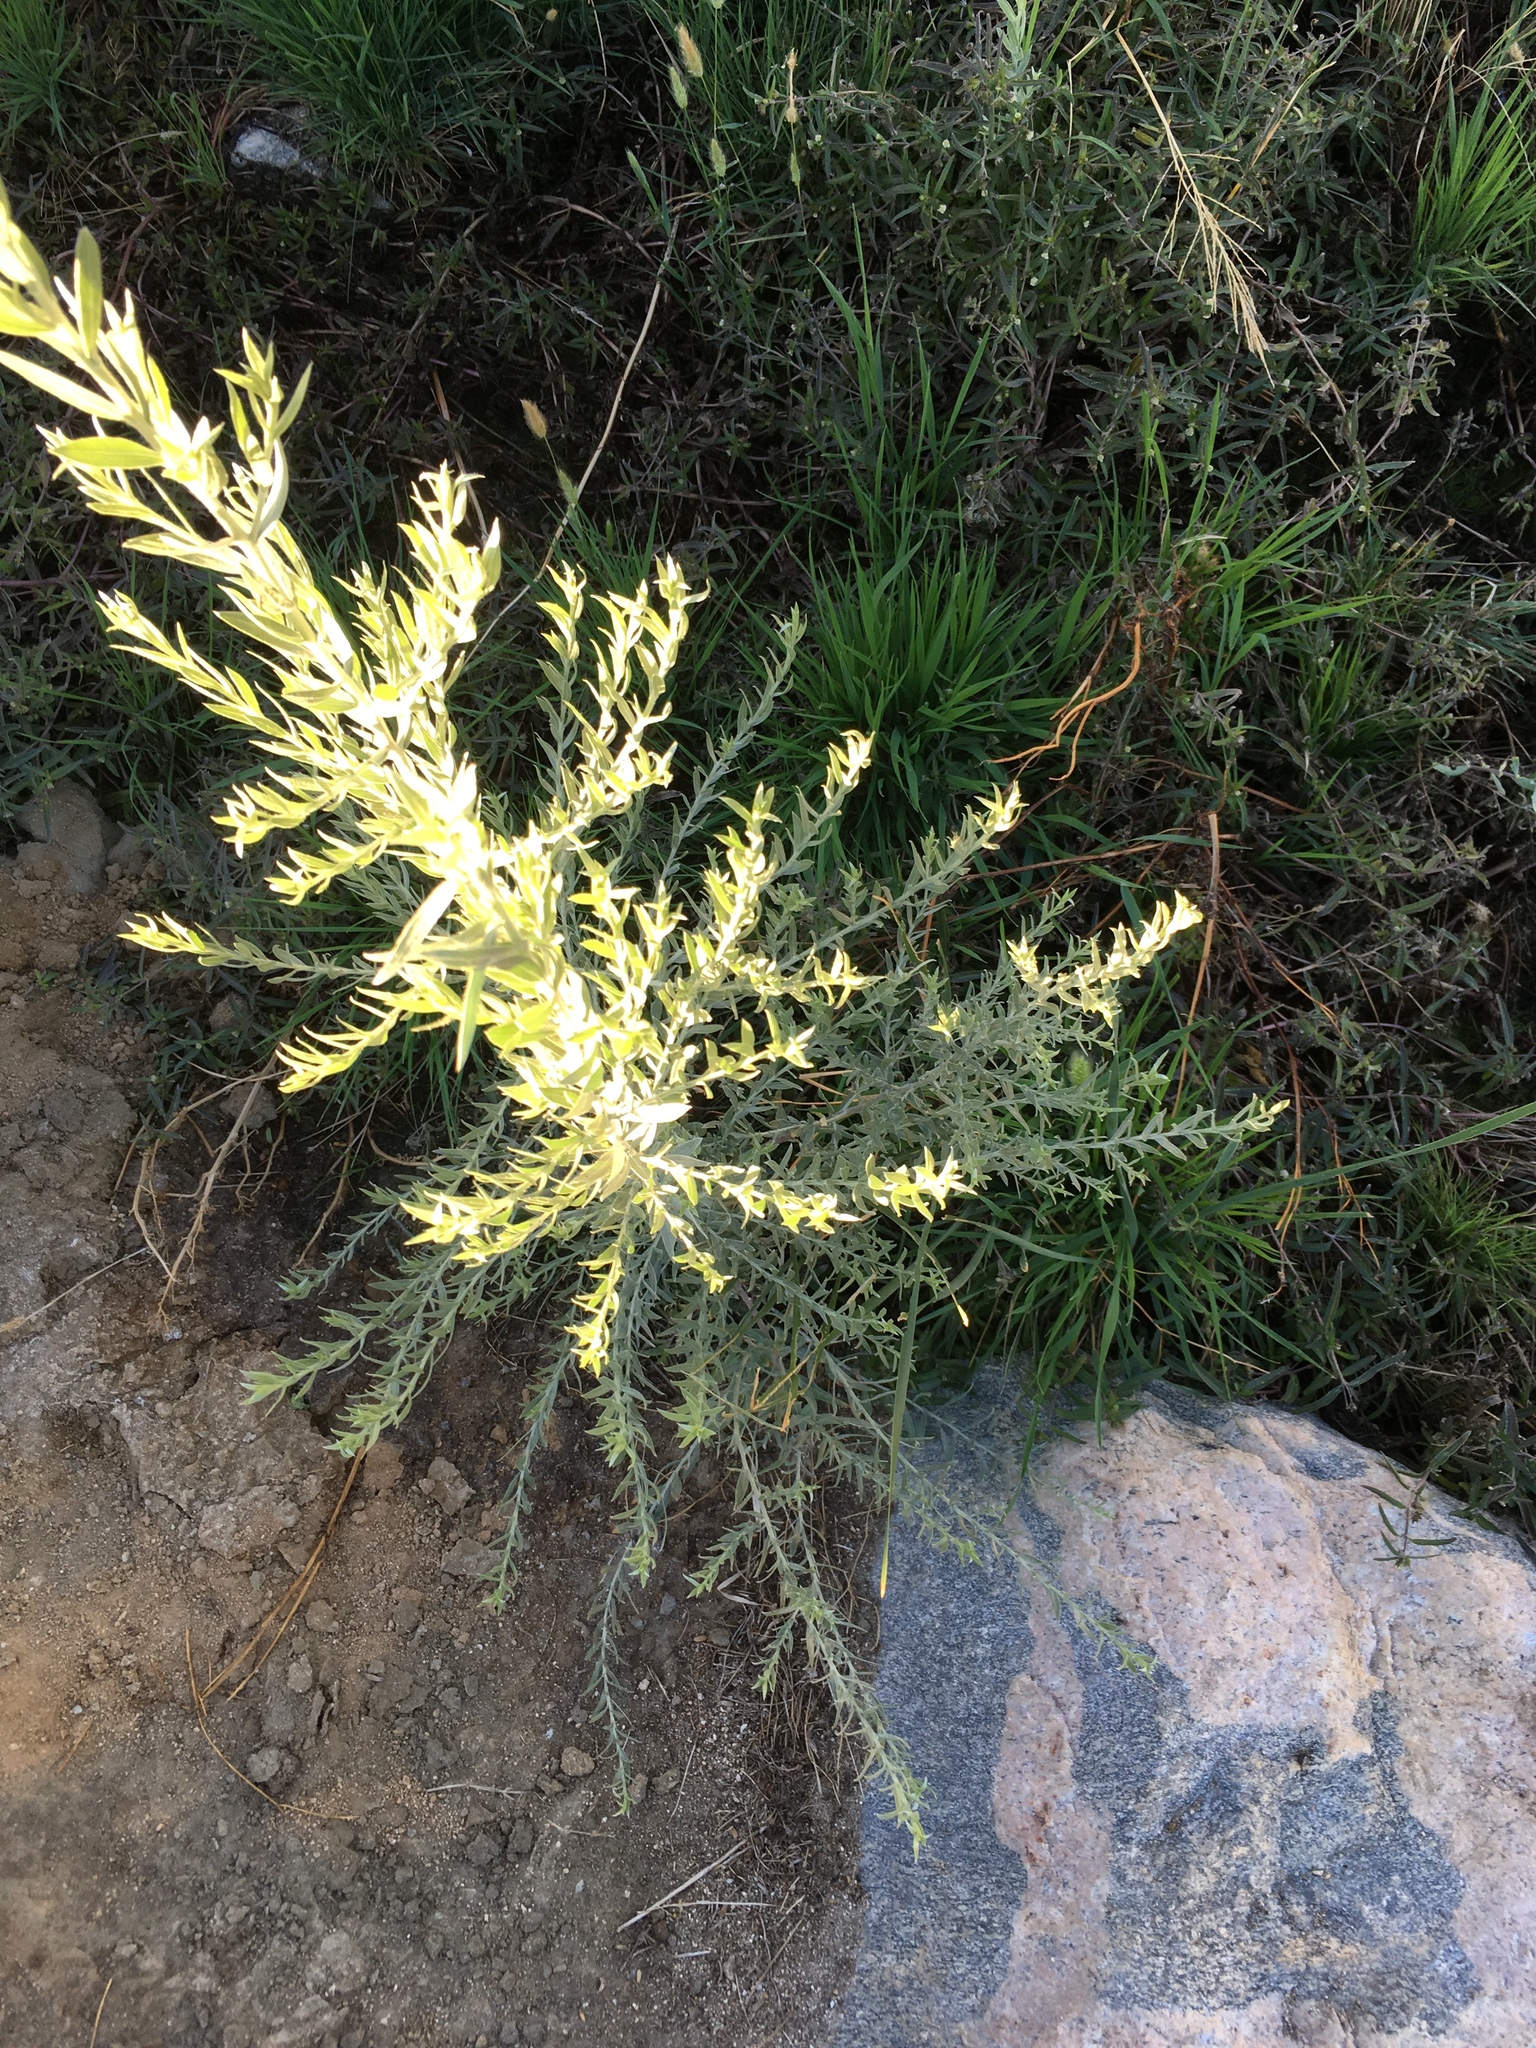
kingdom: Plantae
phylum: Tracheophyta
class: Magnoliopsida
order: Asterales
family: Asteraceae
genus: Pluchea
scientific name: Pluchea sericea
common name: Arrow-weed
